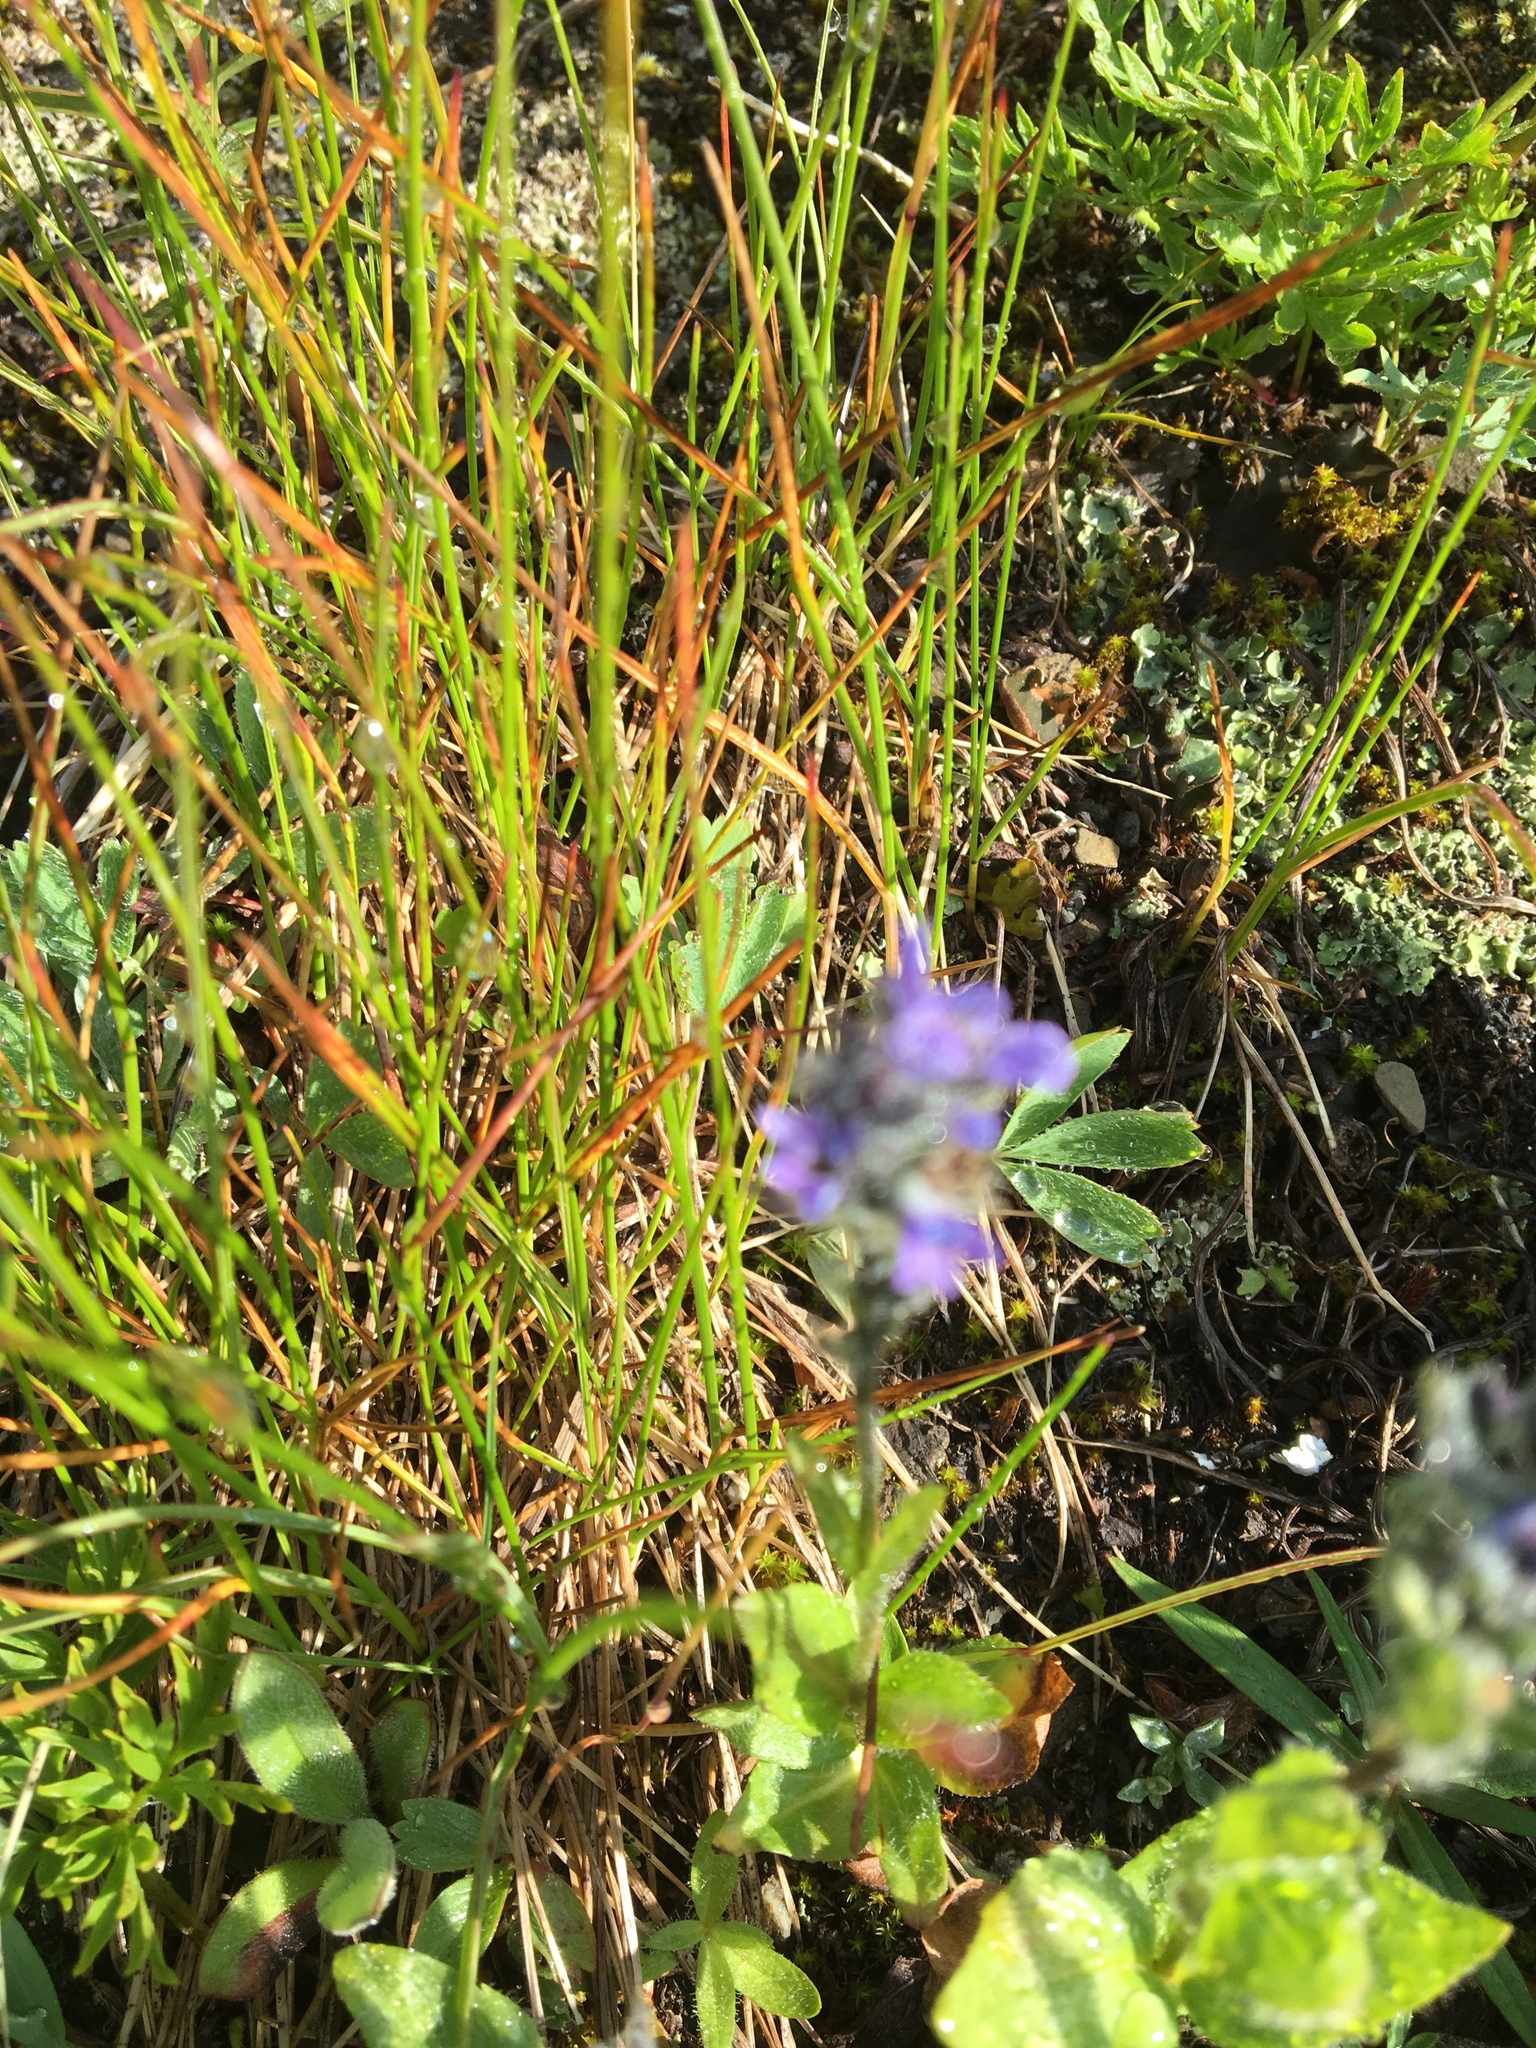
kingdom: Plantae
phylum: Tracheophyta
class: Magnoliopsida
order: Lamiales
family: Plantaginaceae
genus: Veronica
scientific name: Veronica wormskjoldii
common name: American alpine speedwell
